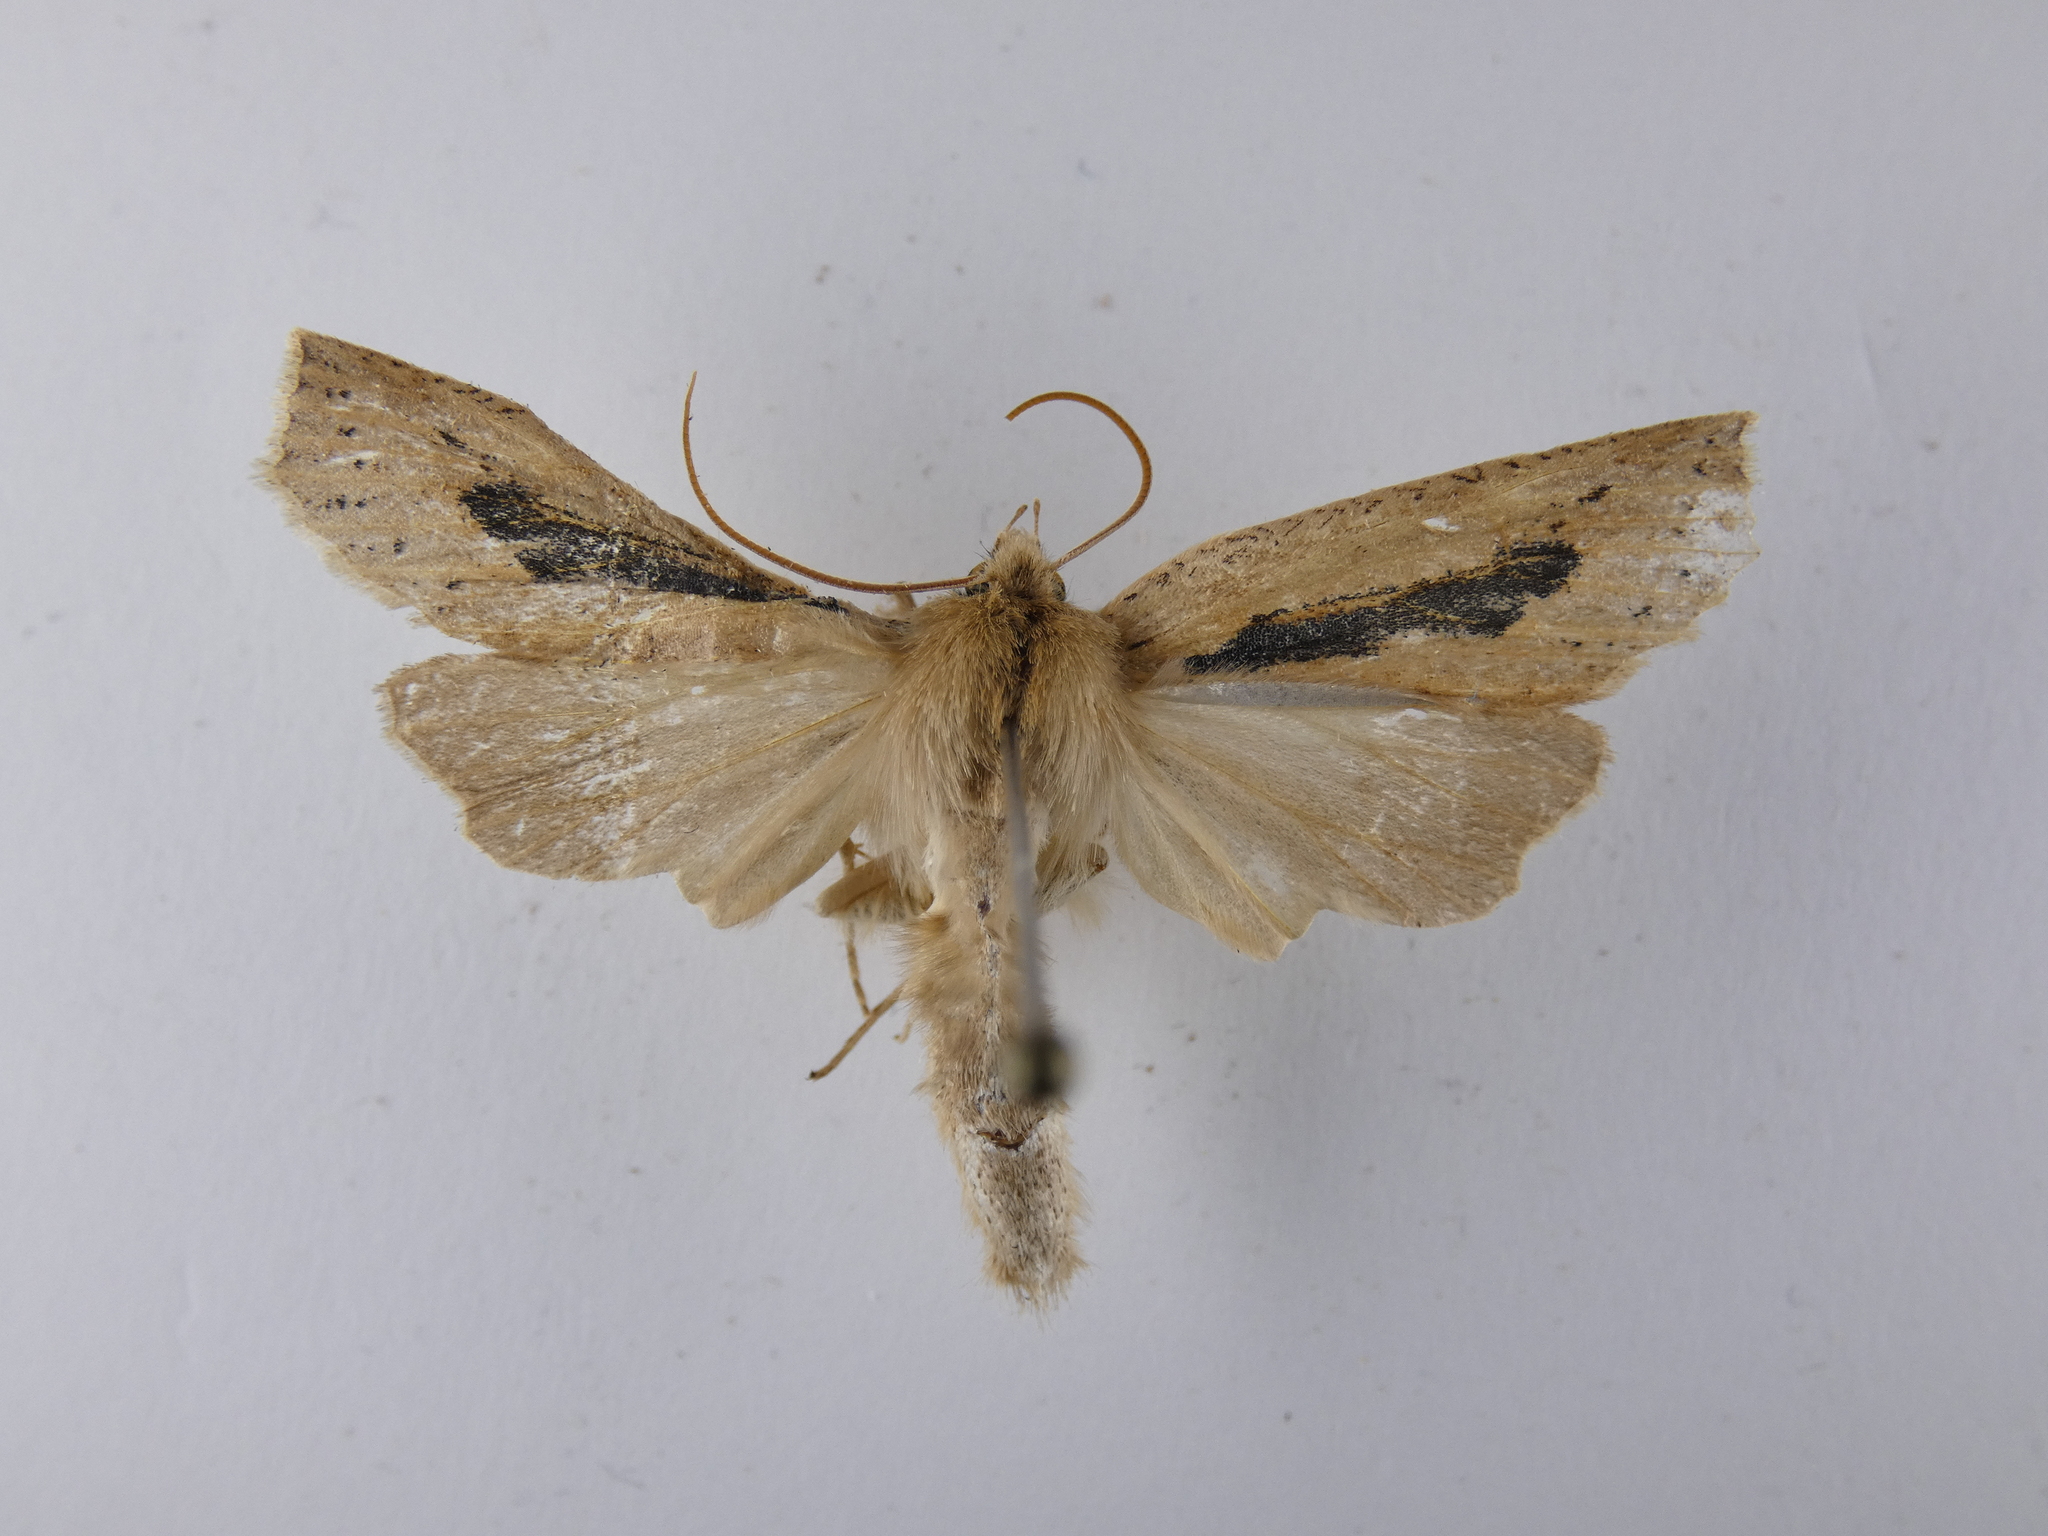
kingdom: Animalia
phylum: Arthropoda
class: Insecta
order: Lepidoptera
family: Geometridae
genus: Declana
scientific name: Declana leptomera
